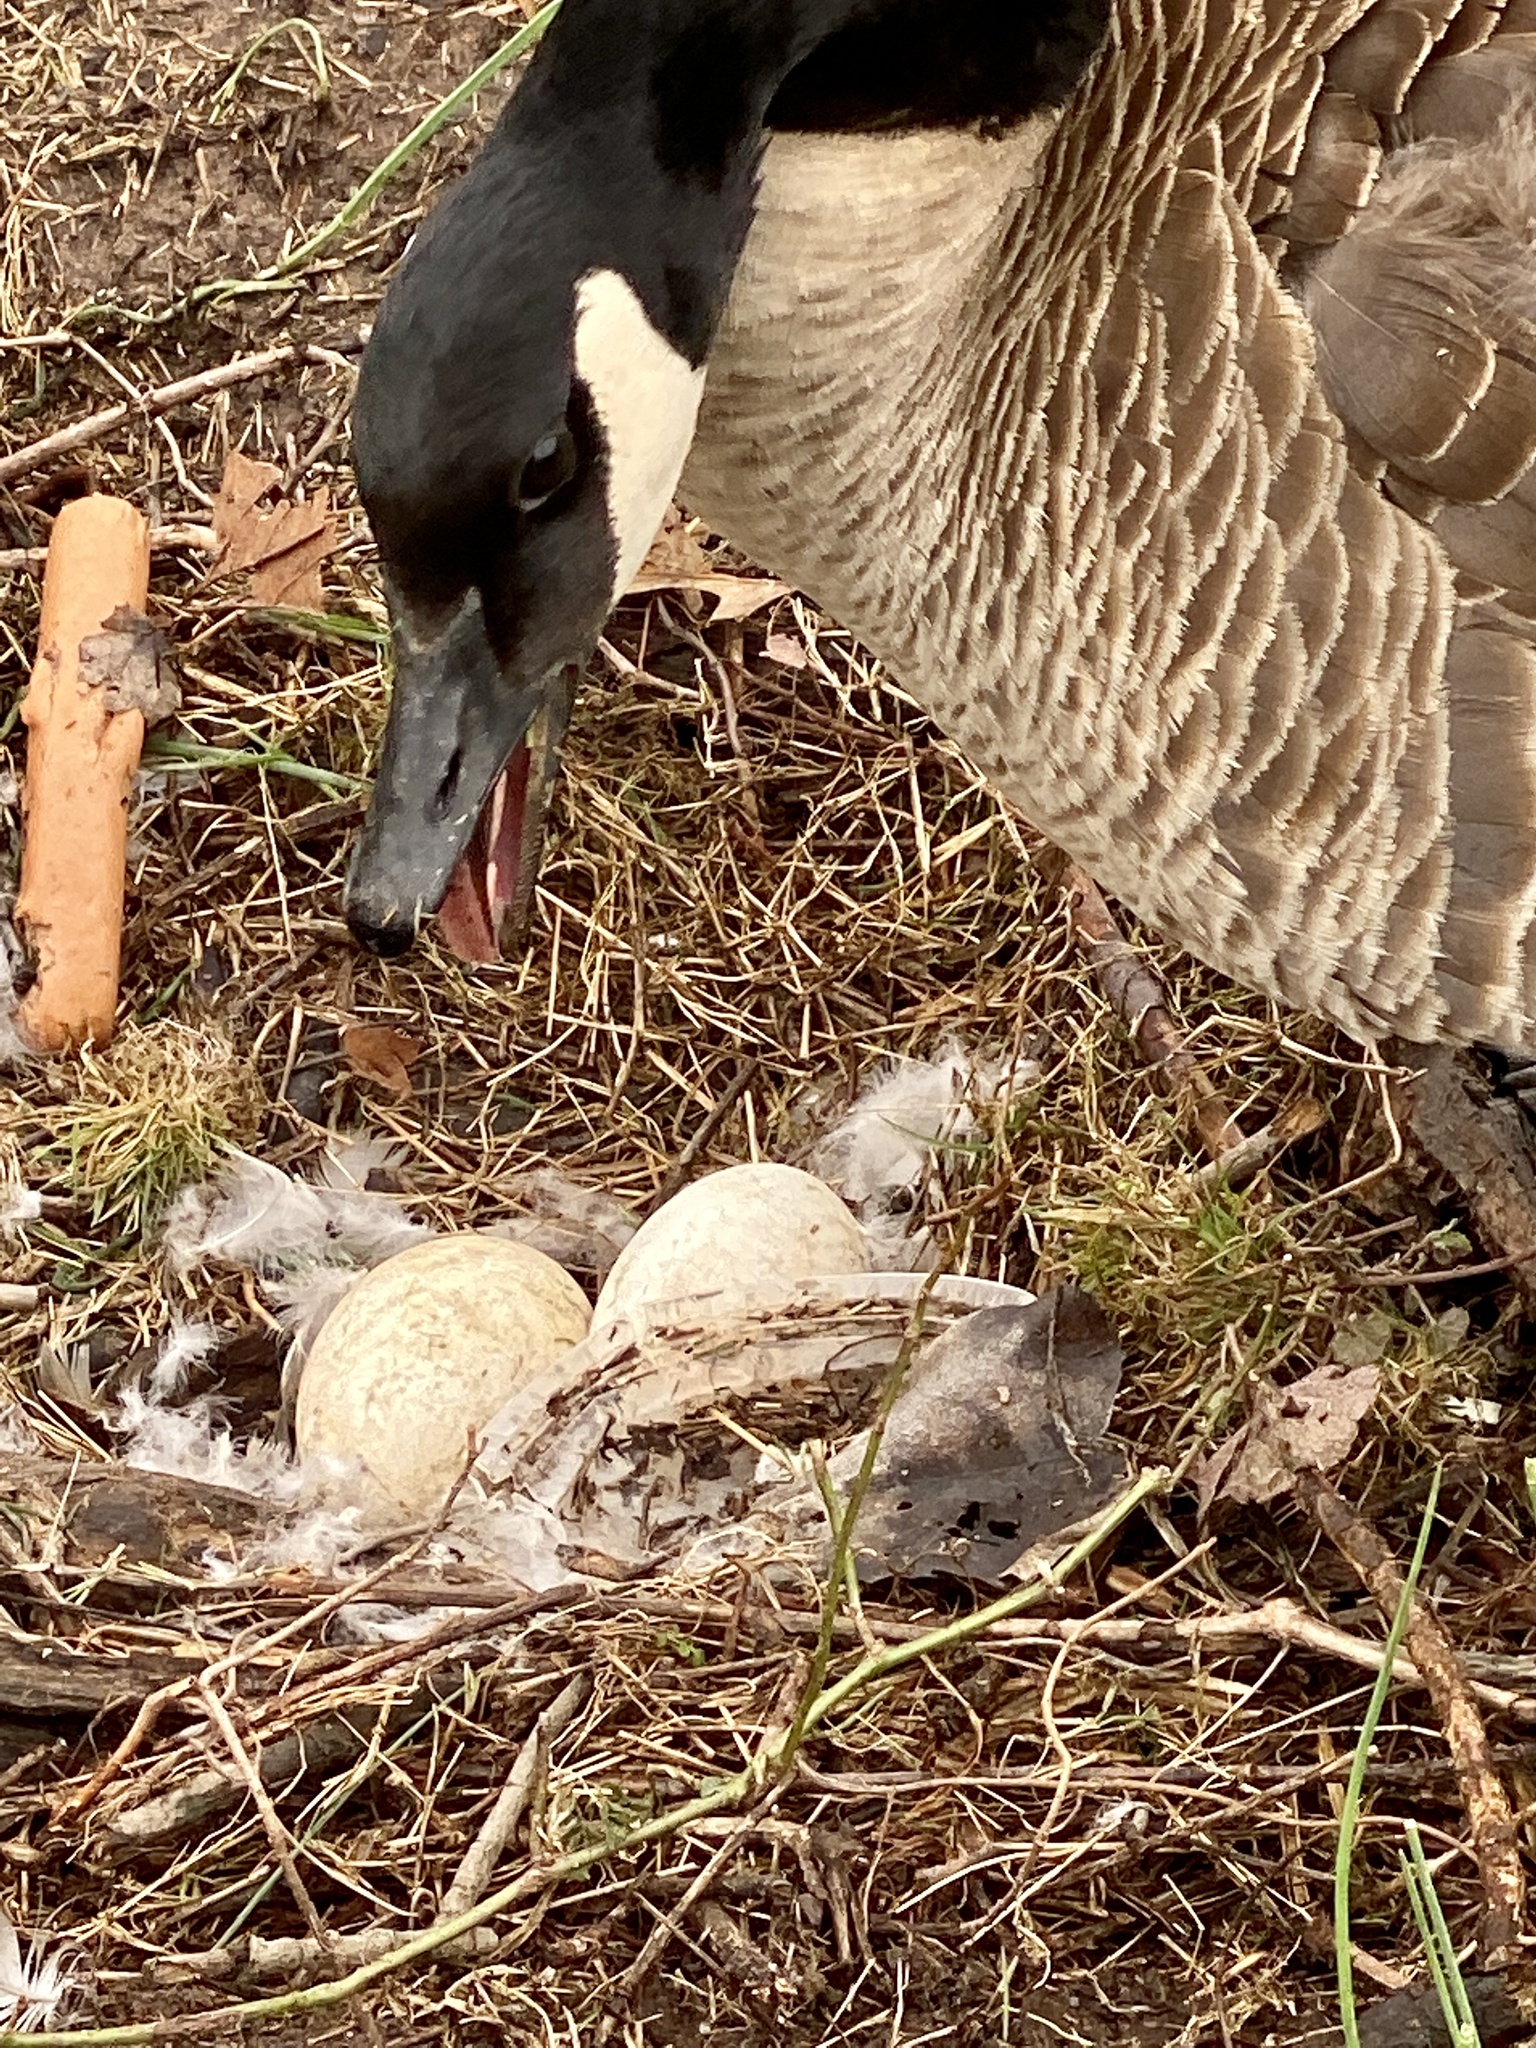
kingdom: Animalia
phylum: Chordata
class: Aves
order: Anseriformes
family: Anatidae
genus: Branta
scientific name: Branta canadensis
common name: Canada goose
